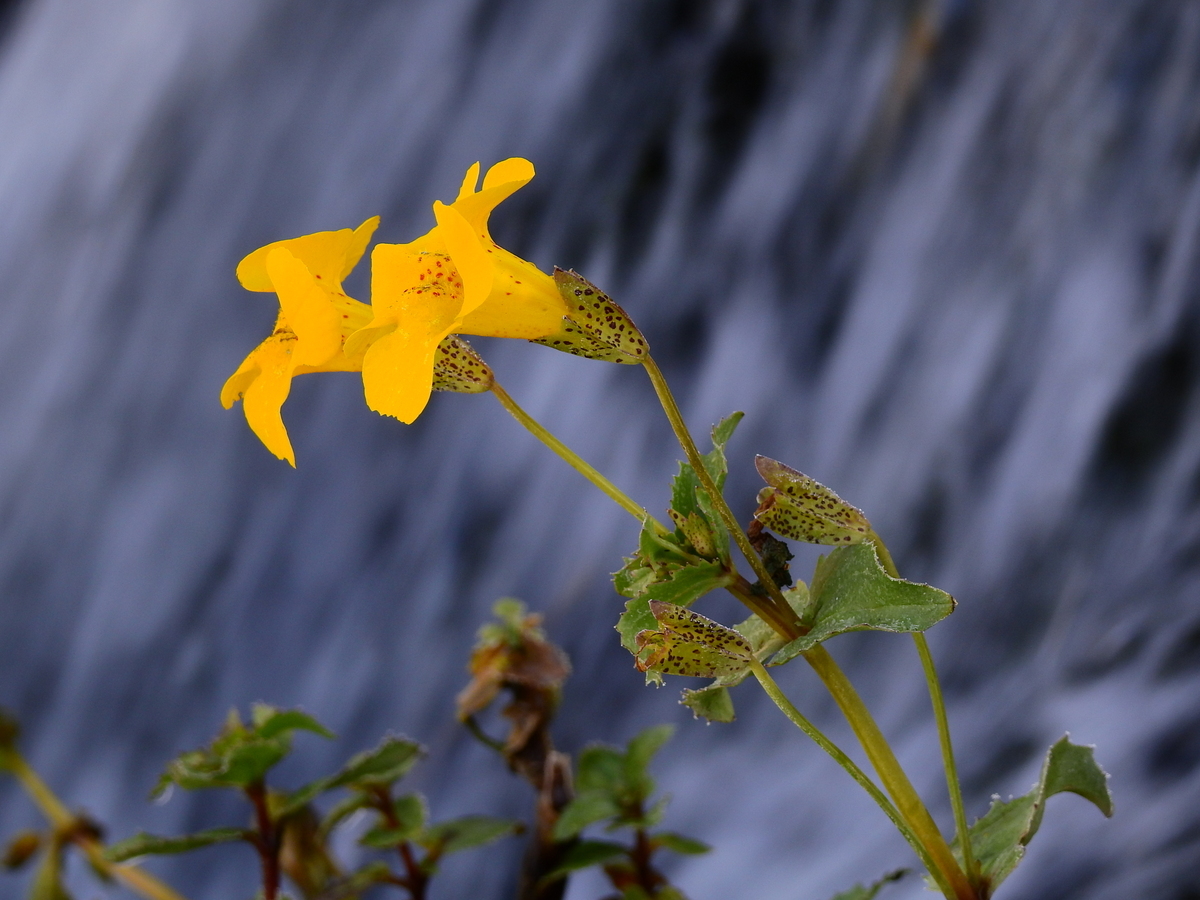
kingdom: Plantae
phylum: Tracheophyta
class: Magnoliopsida
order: Lamiales
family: Phrymaceae
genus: Erythranthe
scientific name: Erythranthe lutea
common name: Yellow monkey-flower
